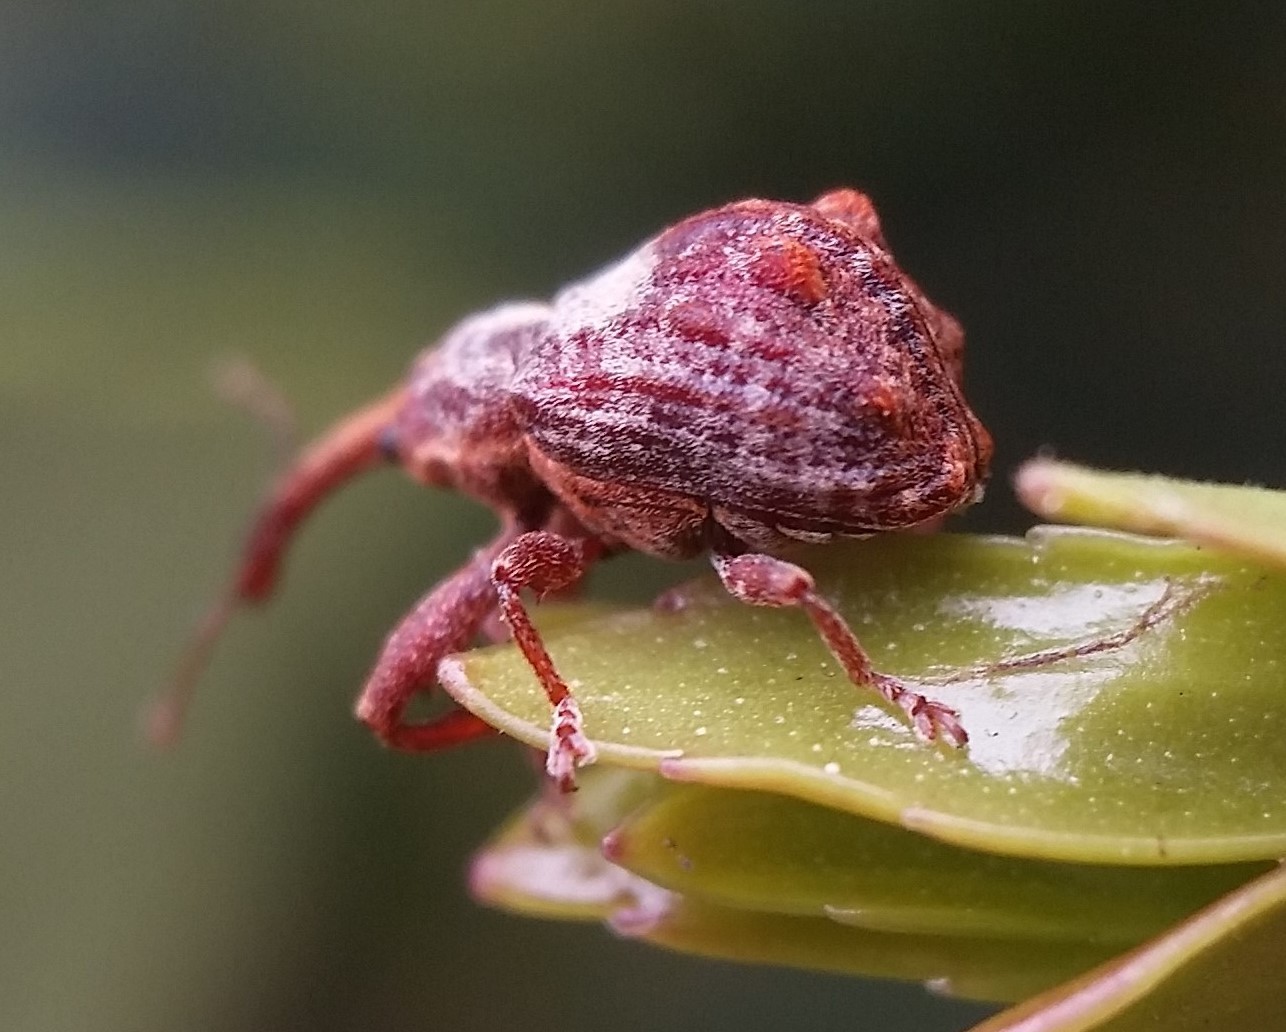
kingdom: Animalia
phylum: Arthropoda
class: Insecta
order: Coleoptera
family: Curculionidae
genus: Anthonomus
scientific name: Anthonomus quadrigibbus
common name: Apple curculio
